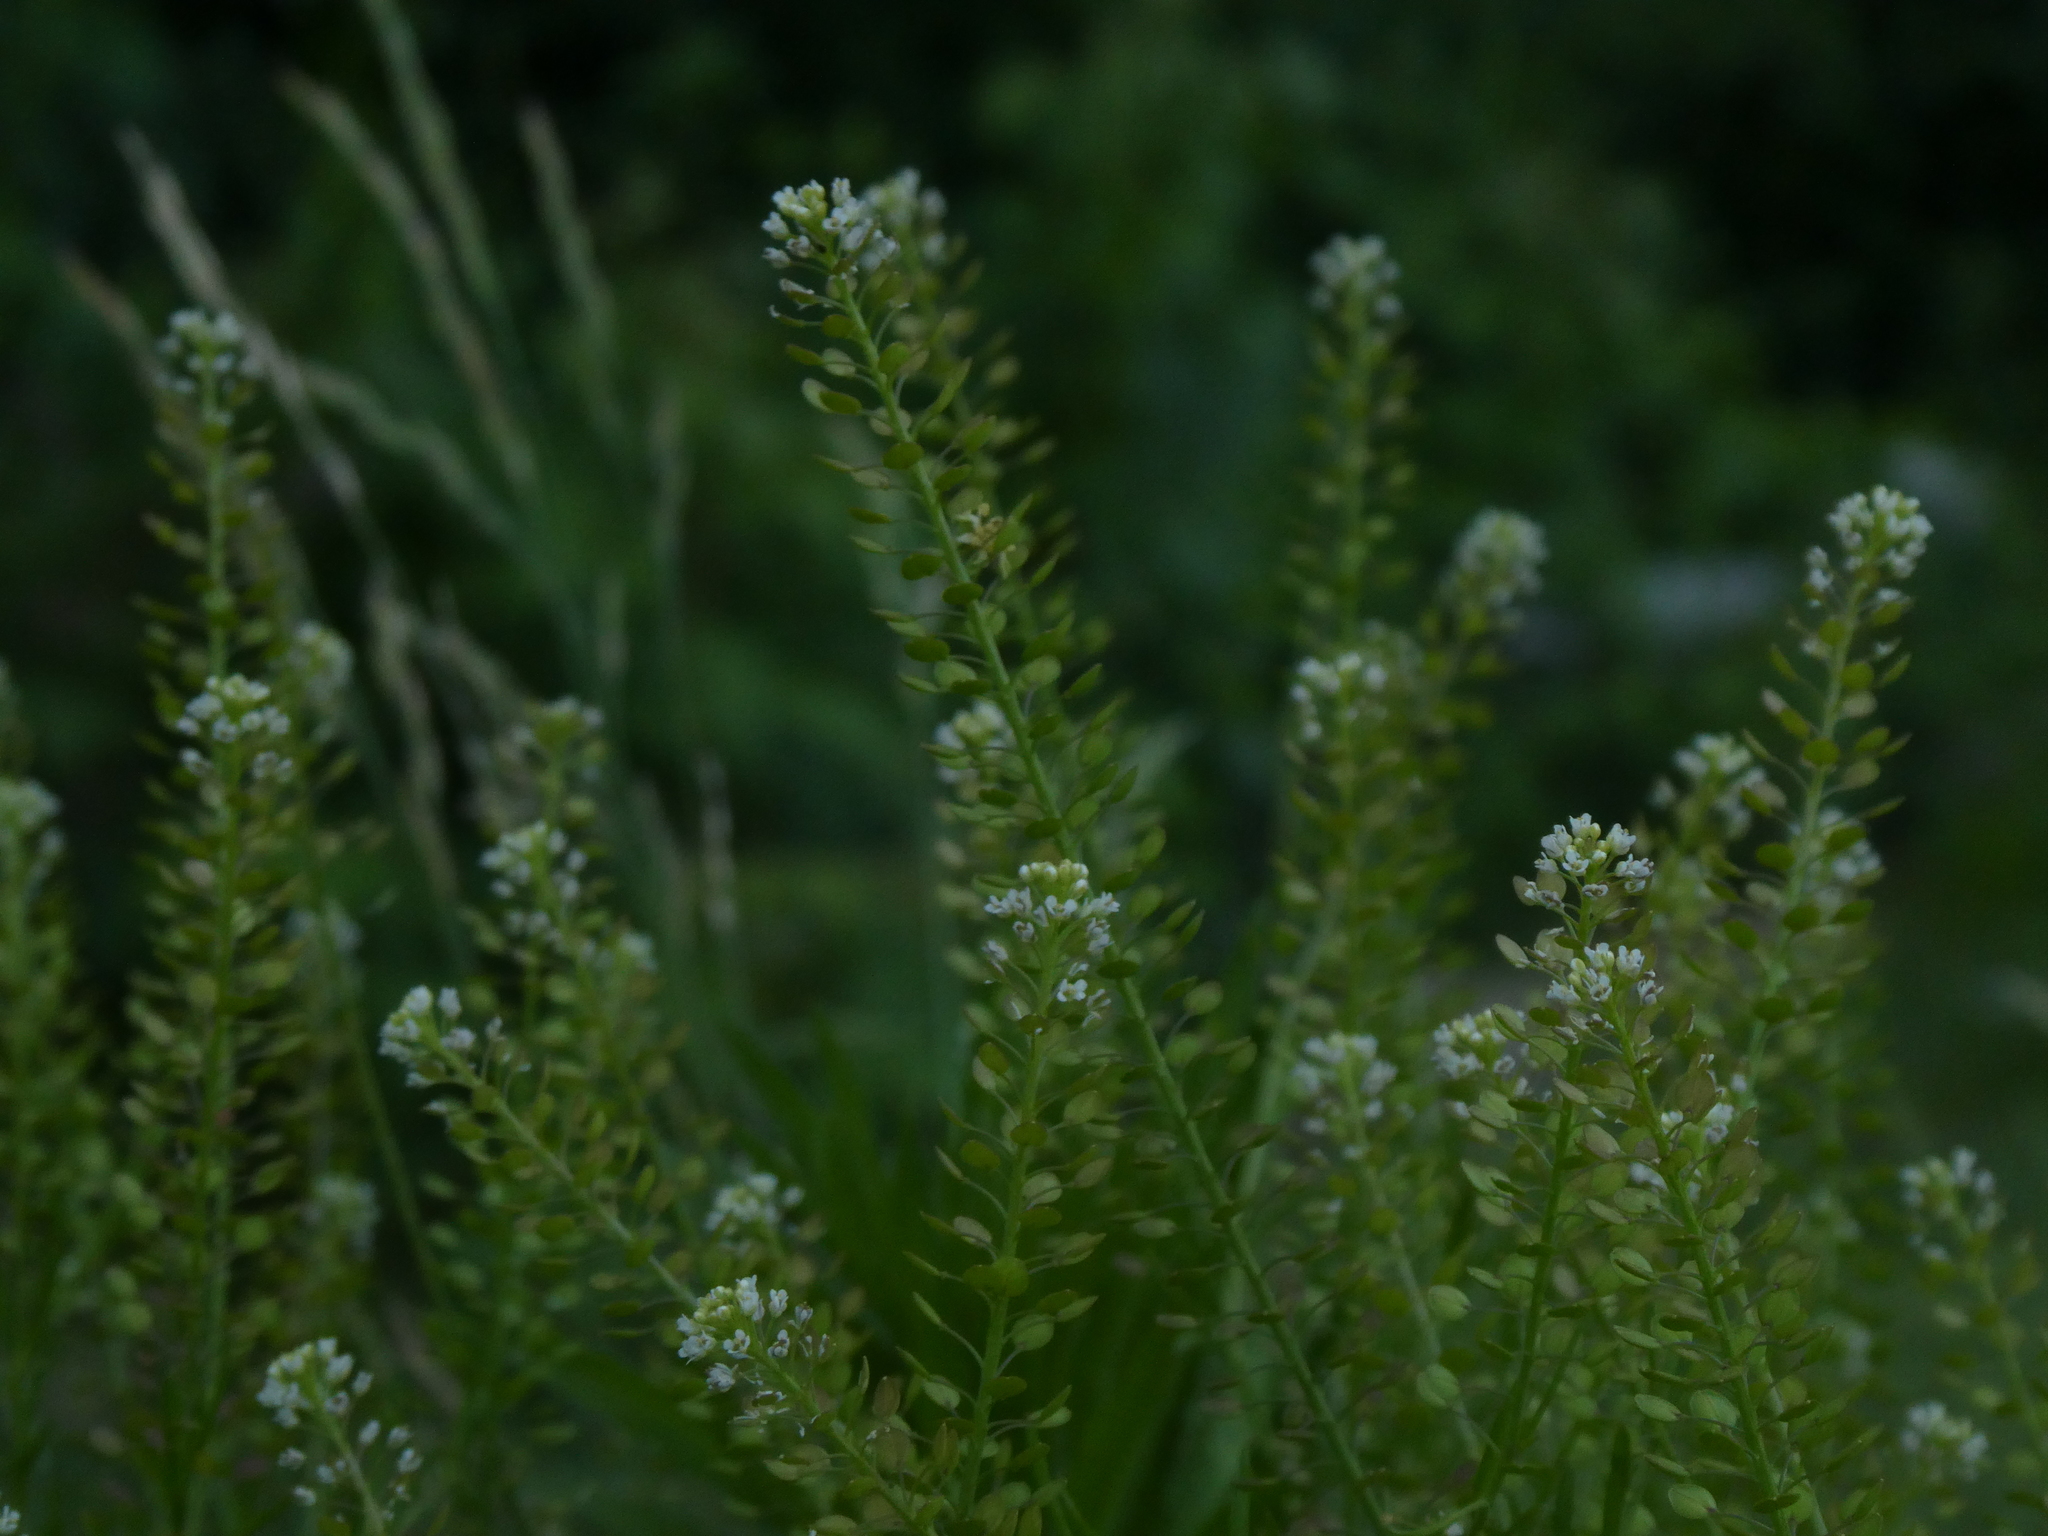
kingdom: Plantae
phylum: Tracheophyta
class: Magnoliopsida
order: Brassicales
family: Brassicaceae
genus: Lepidium
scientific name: Lepidium densiflorum
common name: Miner's pepperwort
